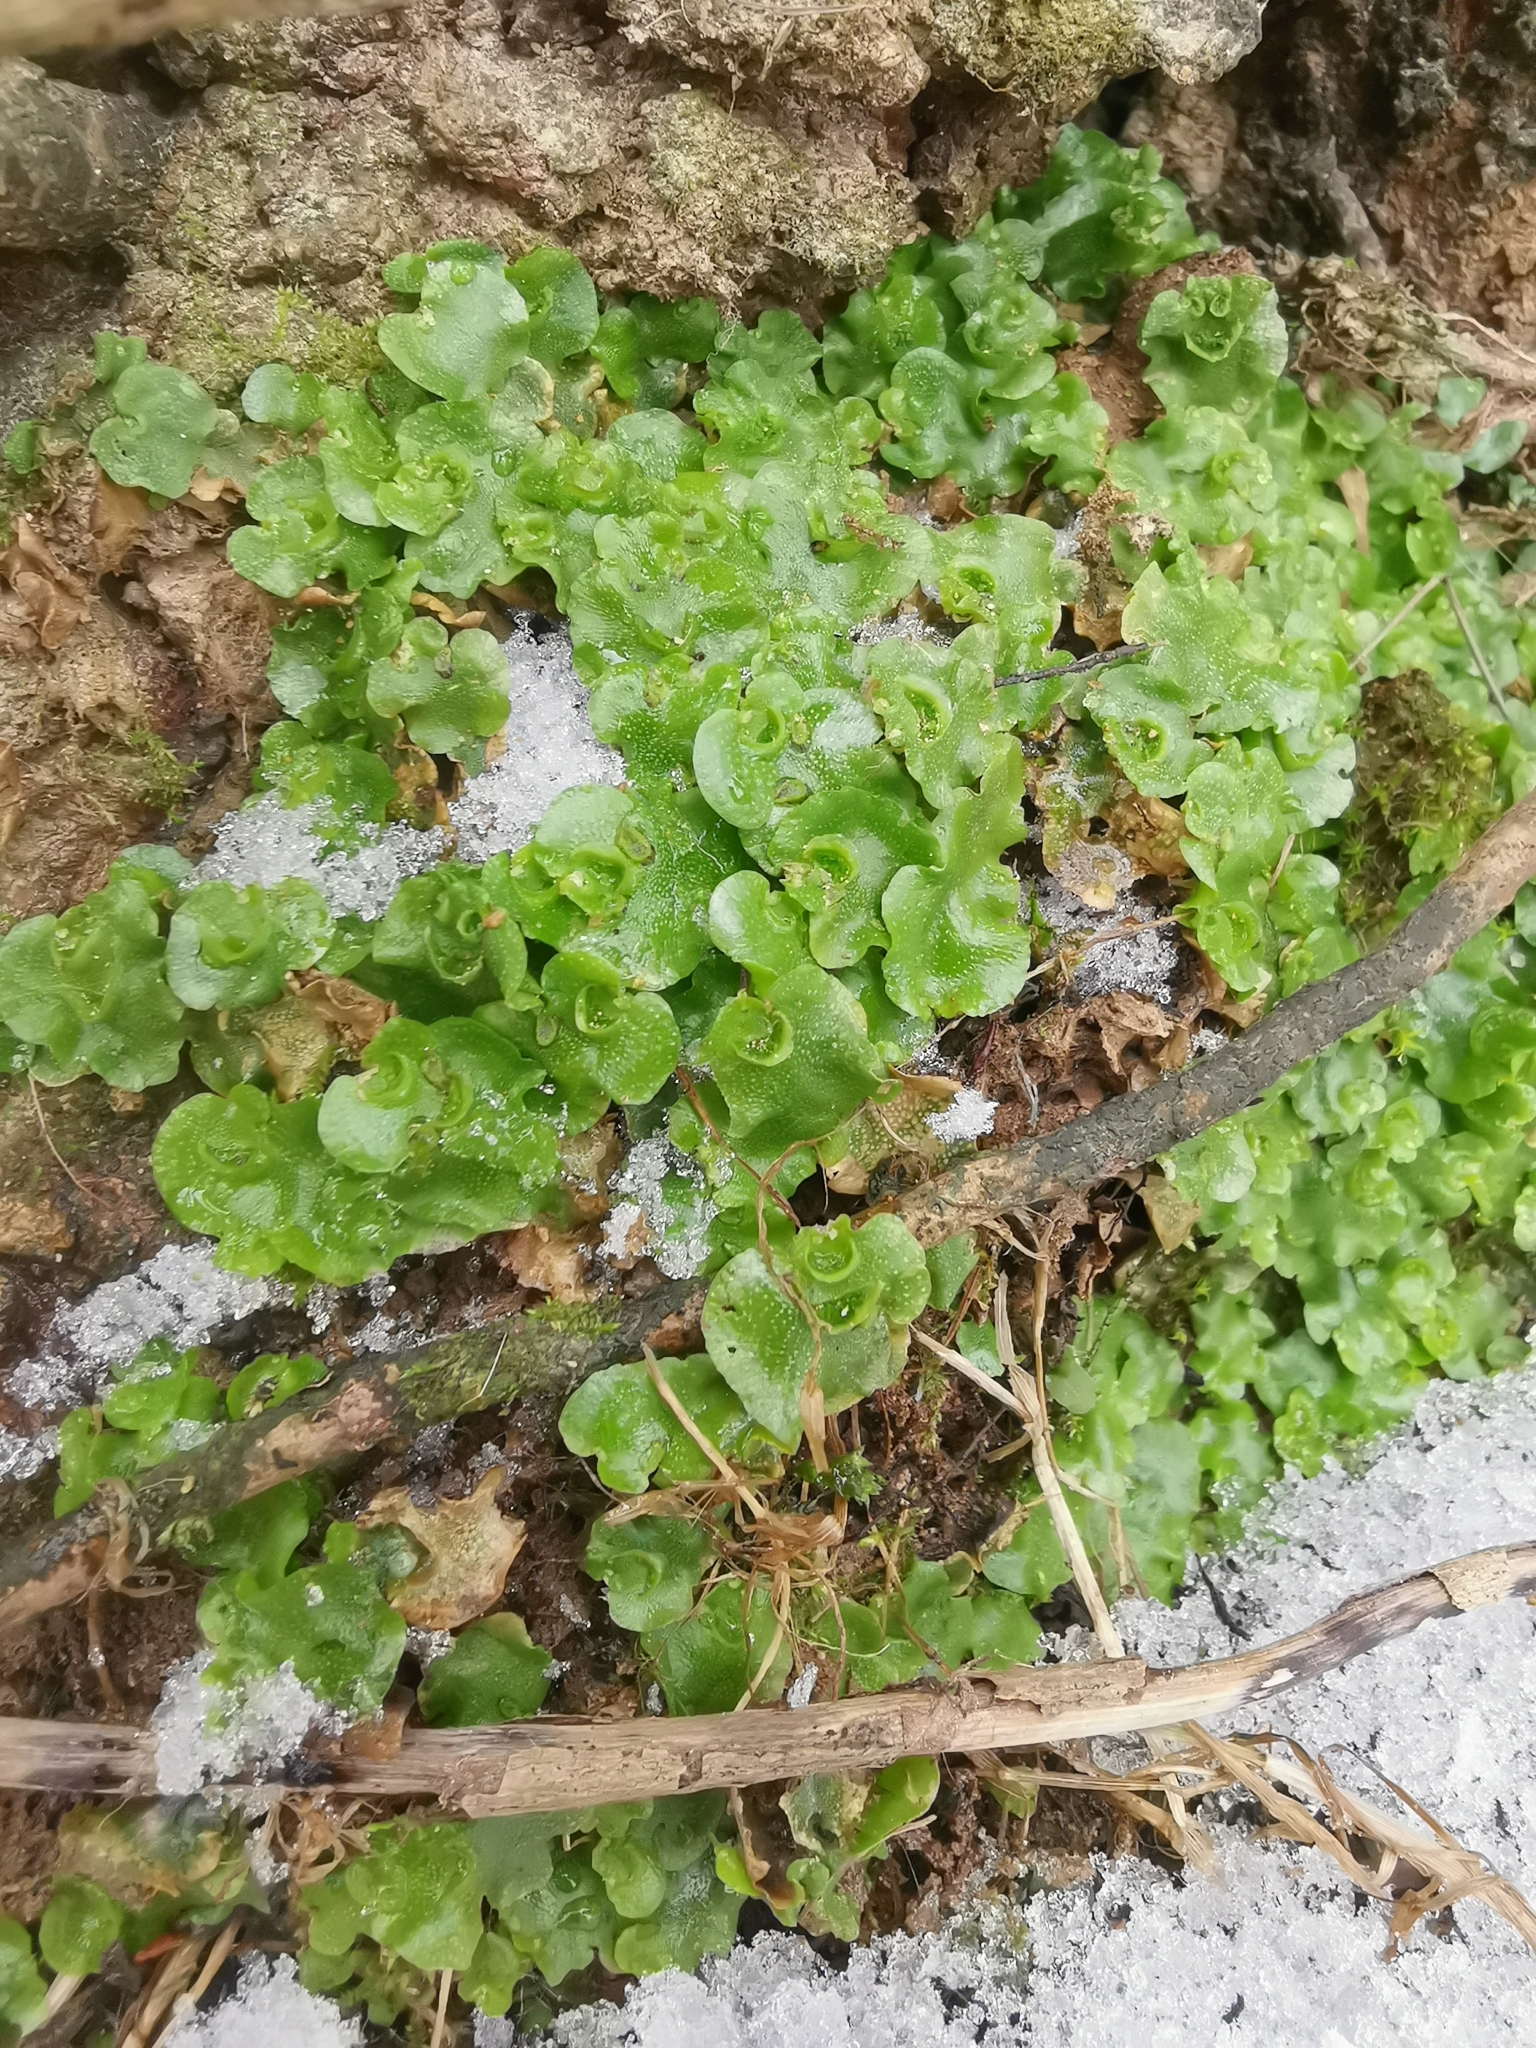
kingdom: Plantae
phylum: Marchantiophyta
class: Marchantiopsida
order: Lunulariales
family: Lunulariaceae
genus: Lunularia
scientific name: Lunularia cruciata
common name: Crescent-cup liverwort
